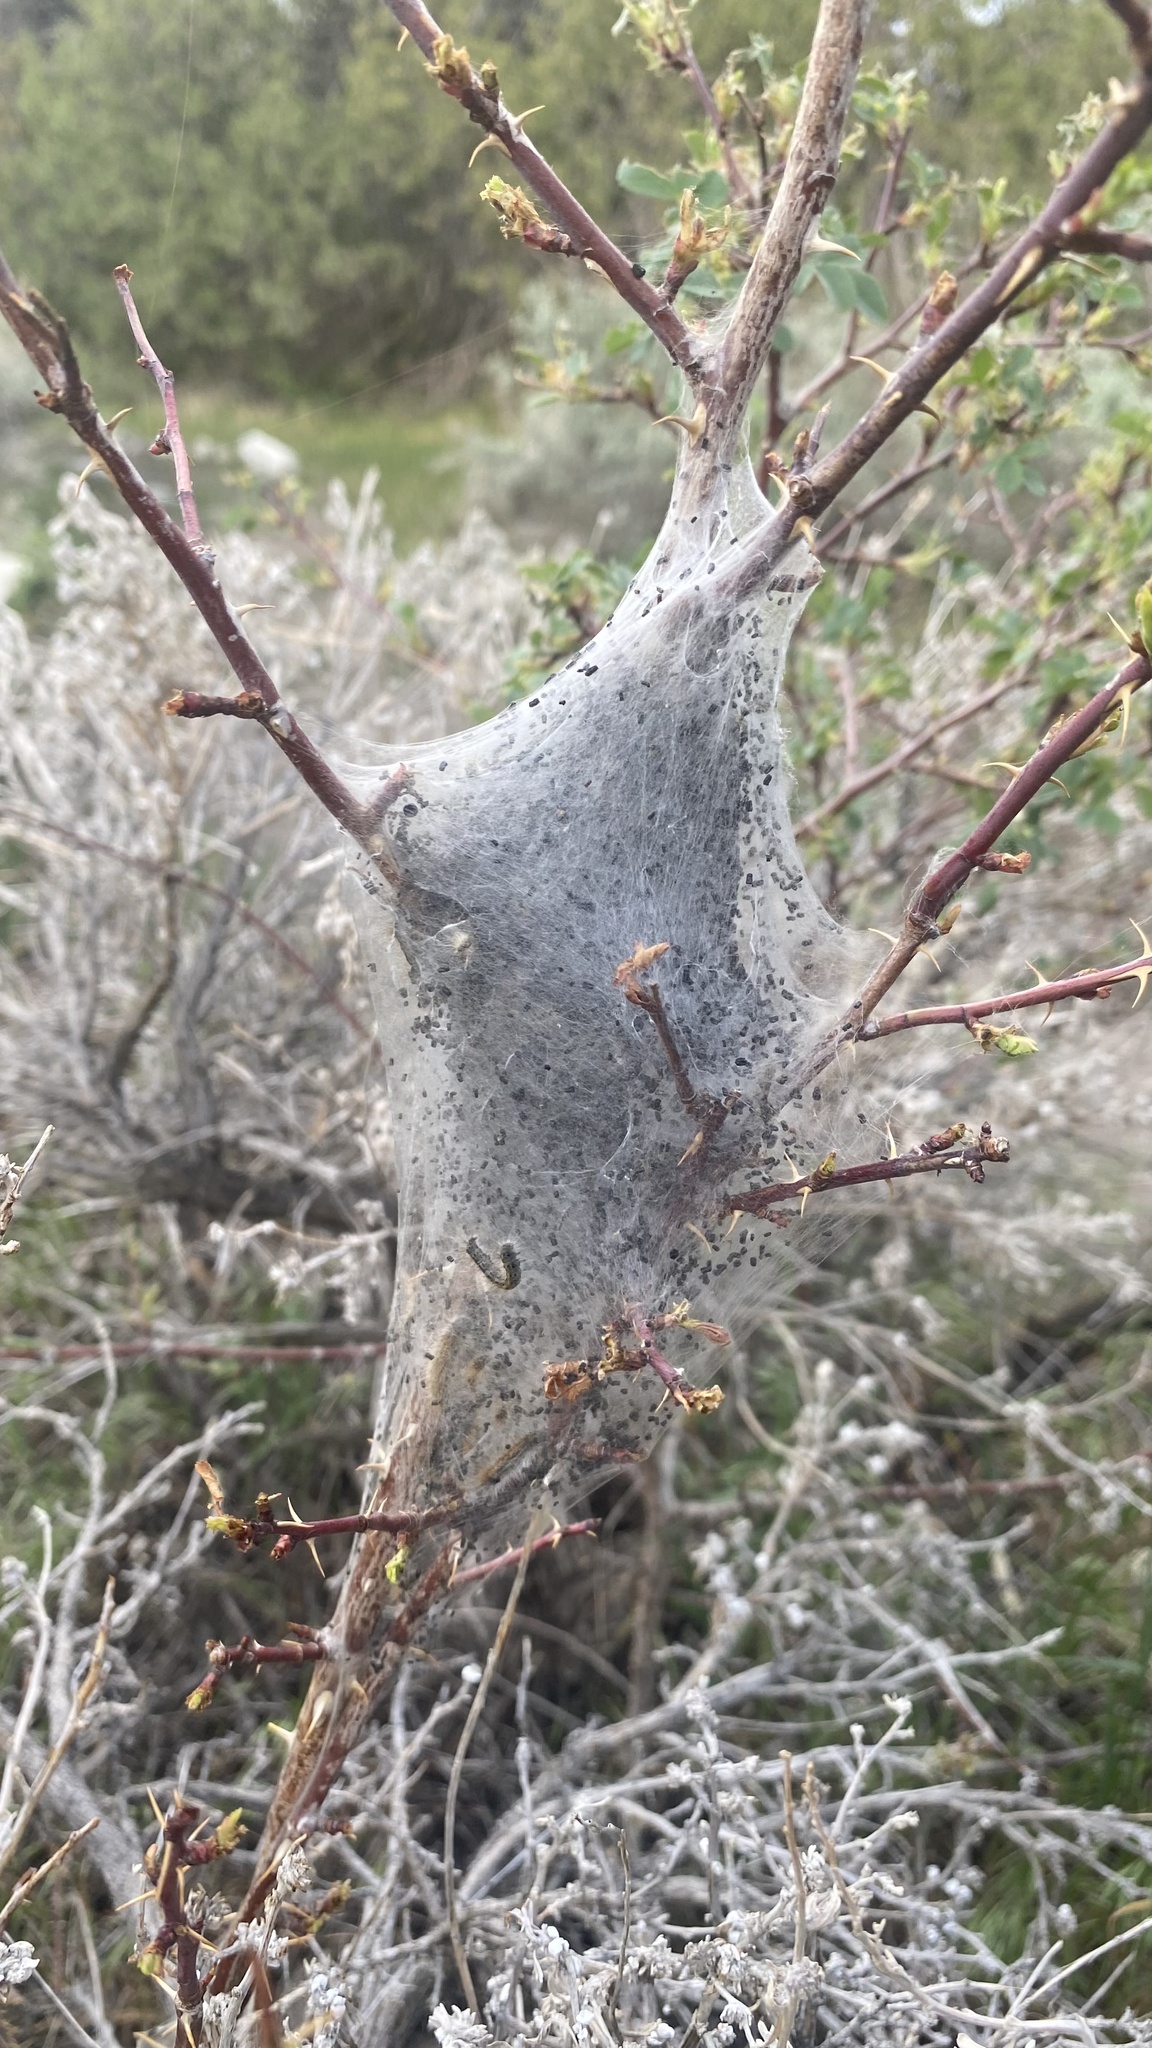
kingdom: Animalia
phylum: Arthropoda
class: Insecta
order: Lepidoptera
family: Lasiocampidae
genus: Malacosoma
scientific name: Malacosoma californica
